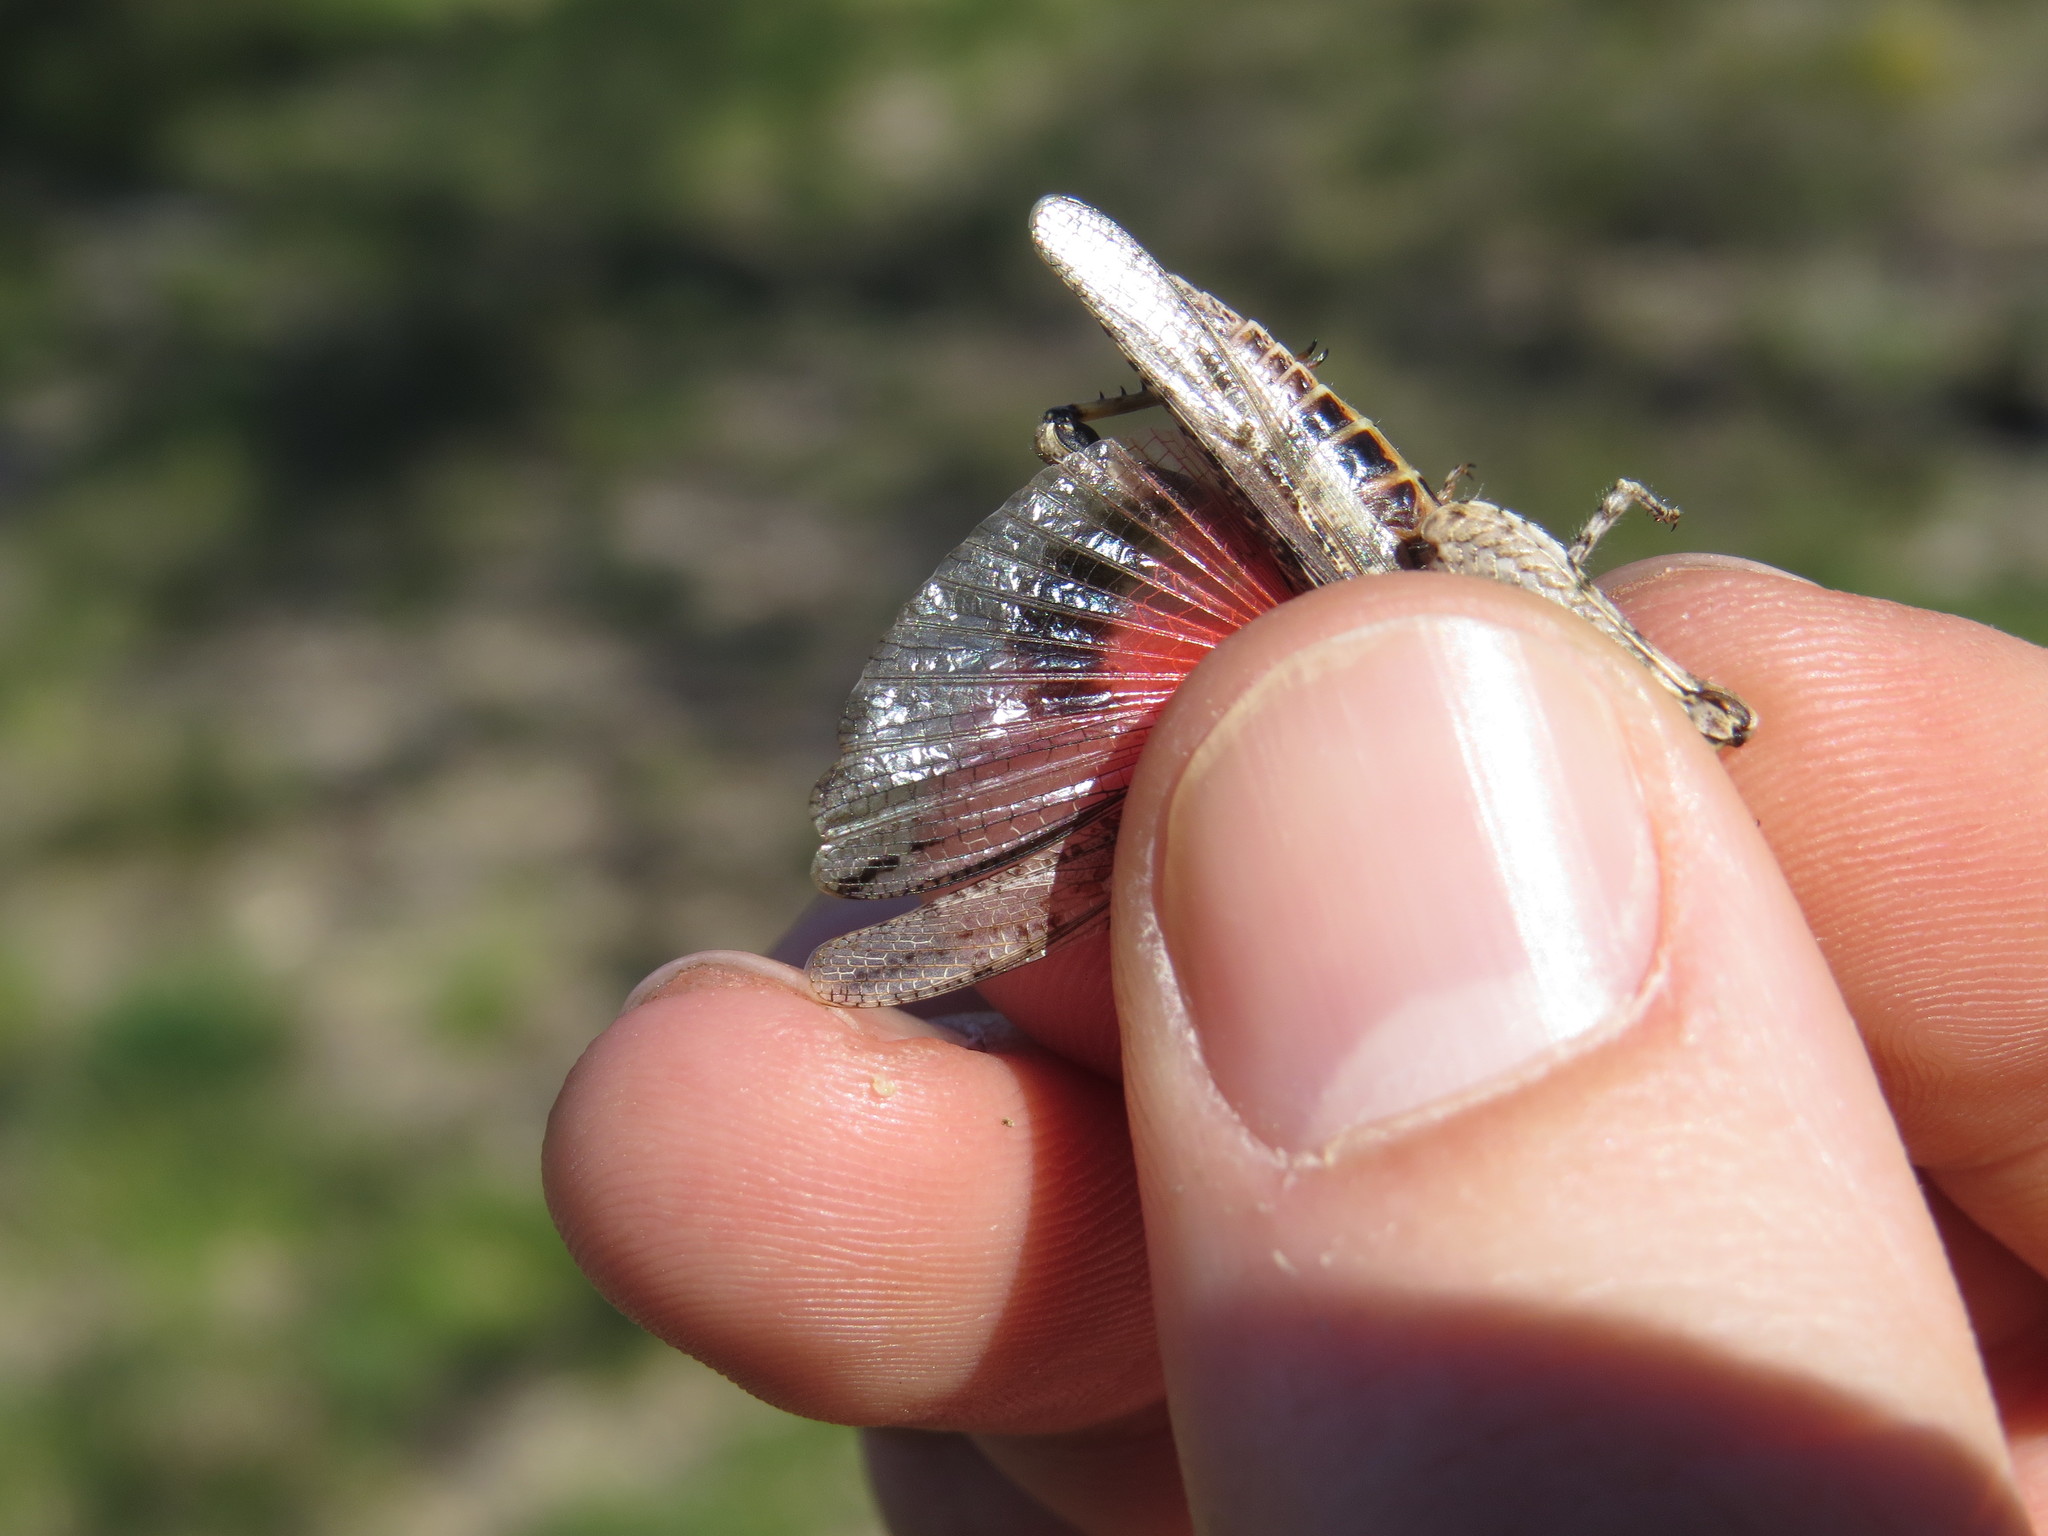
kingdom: Animalia
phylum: Arthropoda
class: Insecta
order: Orthoptera
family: Acrididae
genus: Acrotylus
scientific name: Acrotylus insubricus
